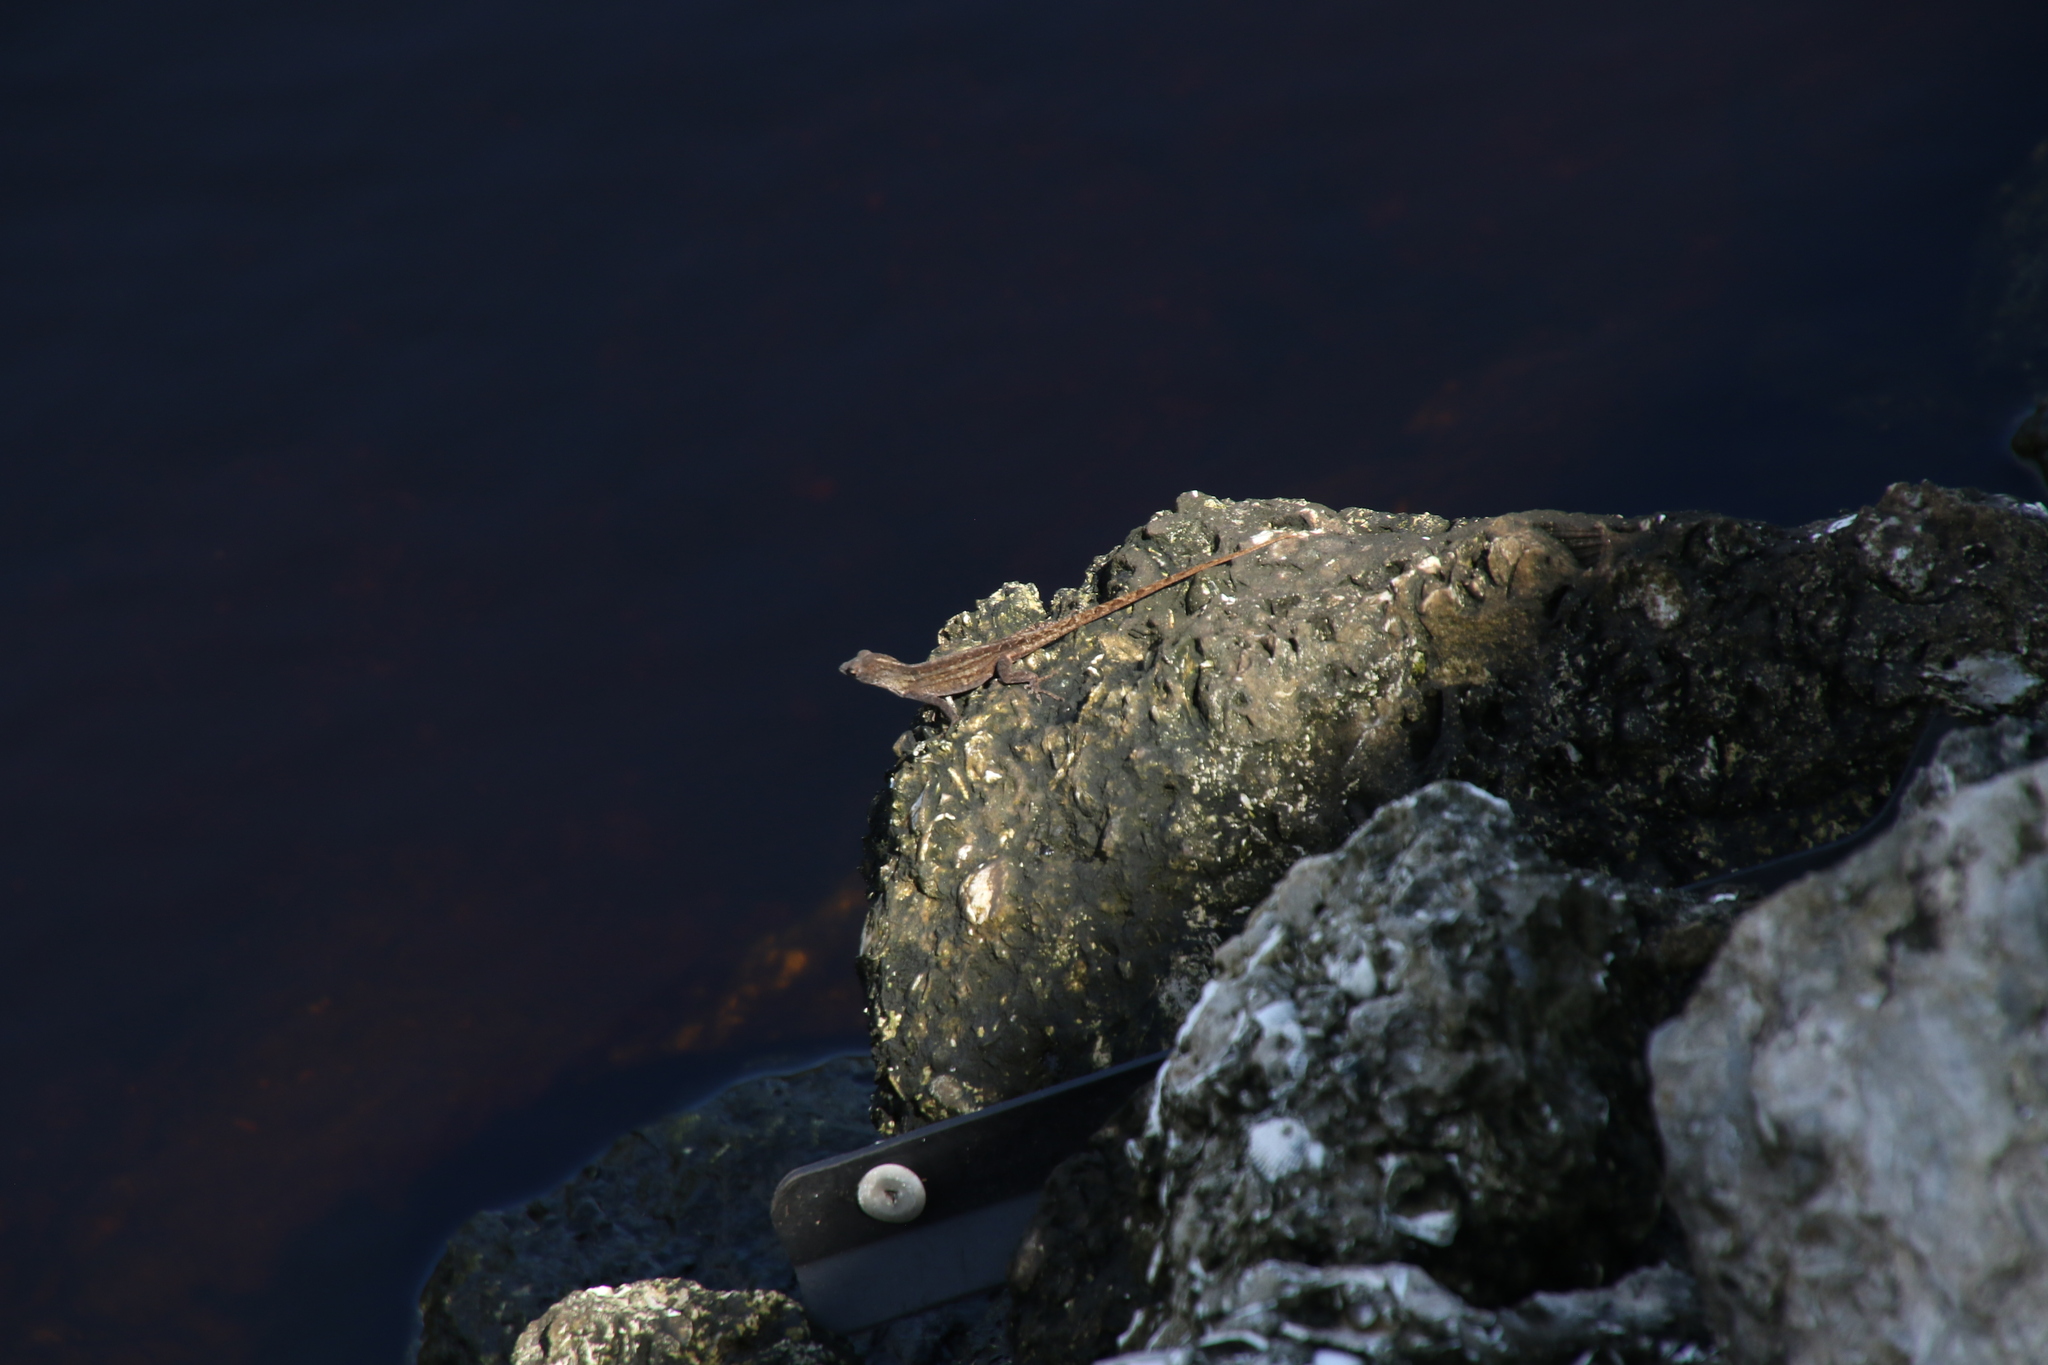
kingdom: Animalia
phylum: Chordata
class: Squamata
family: Dactyloidae
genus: Anolis
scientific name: Anolis sagrei
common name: Brown anole
